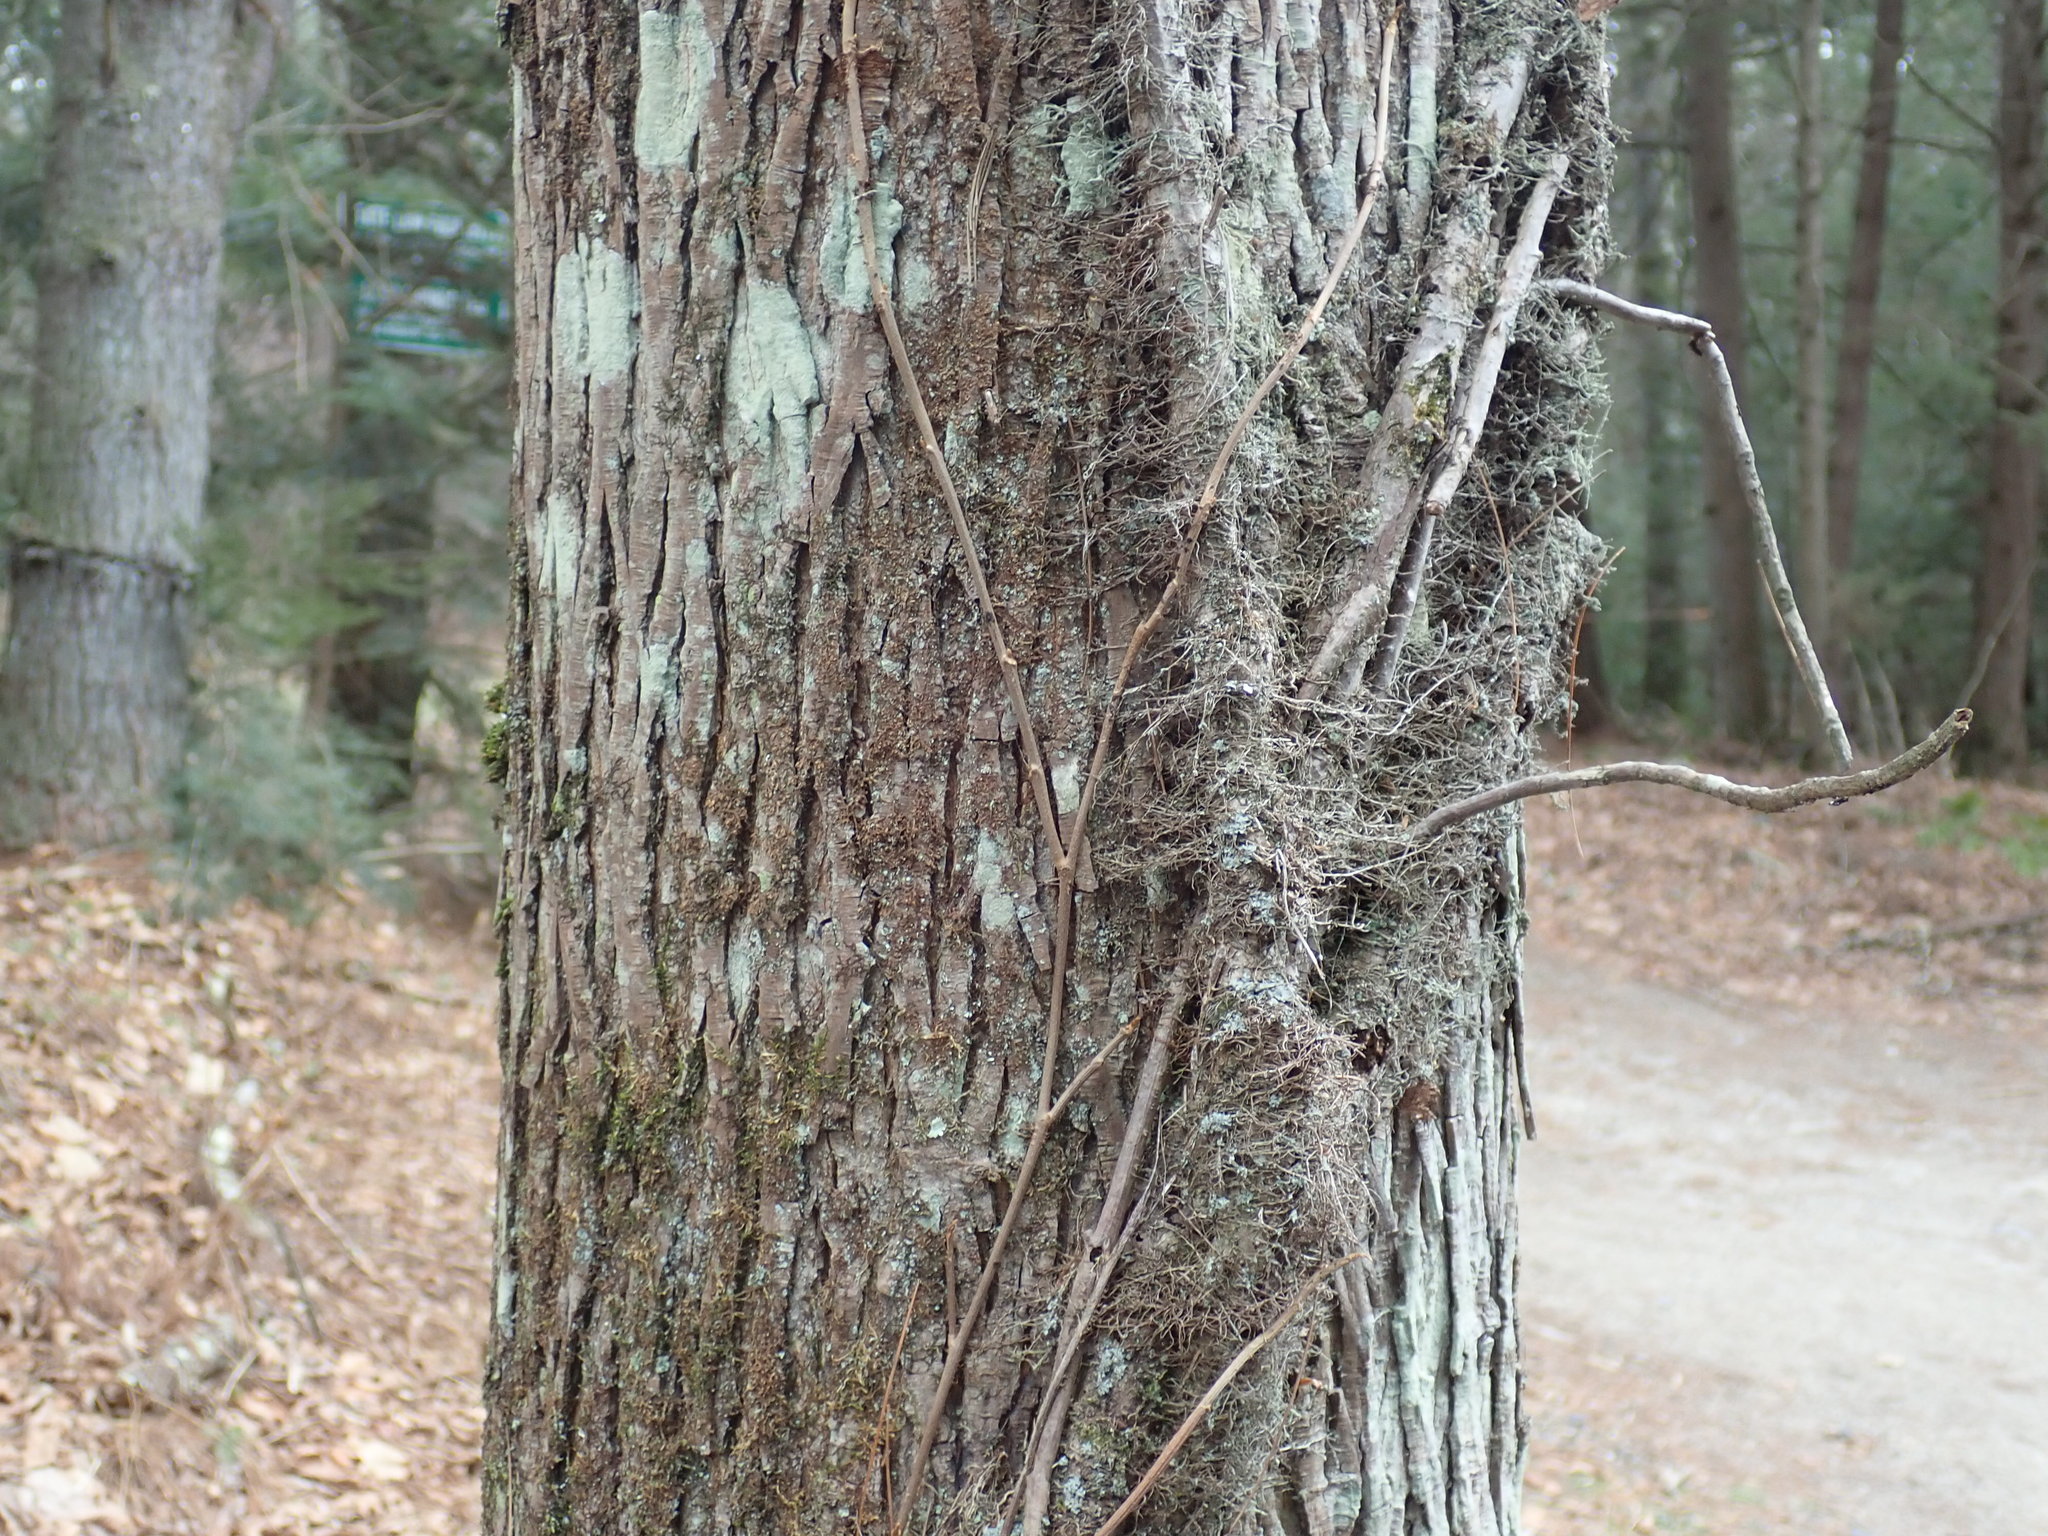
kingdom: Plantae
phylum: Tracheophyta
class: Magnoliopsida
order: Sapindales
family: Anacardiaceae
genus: Toxicodendron
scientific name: Toxicodendron radicans
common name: Poison ivy
